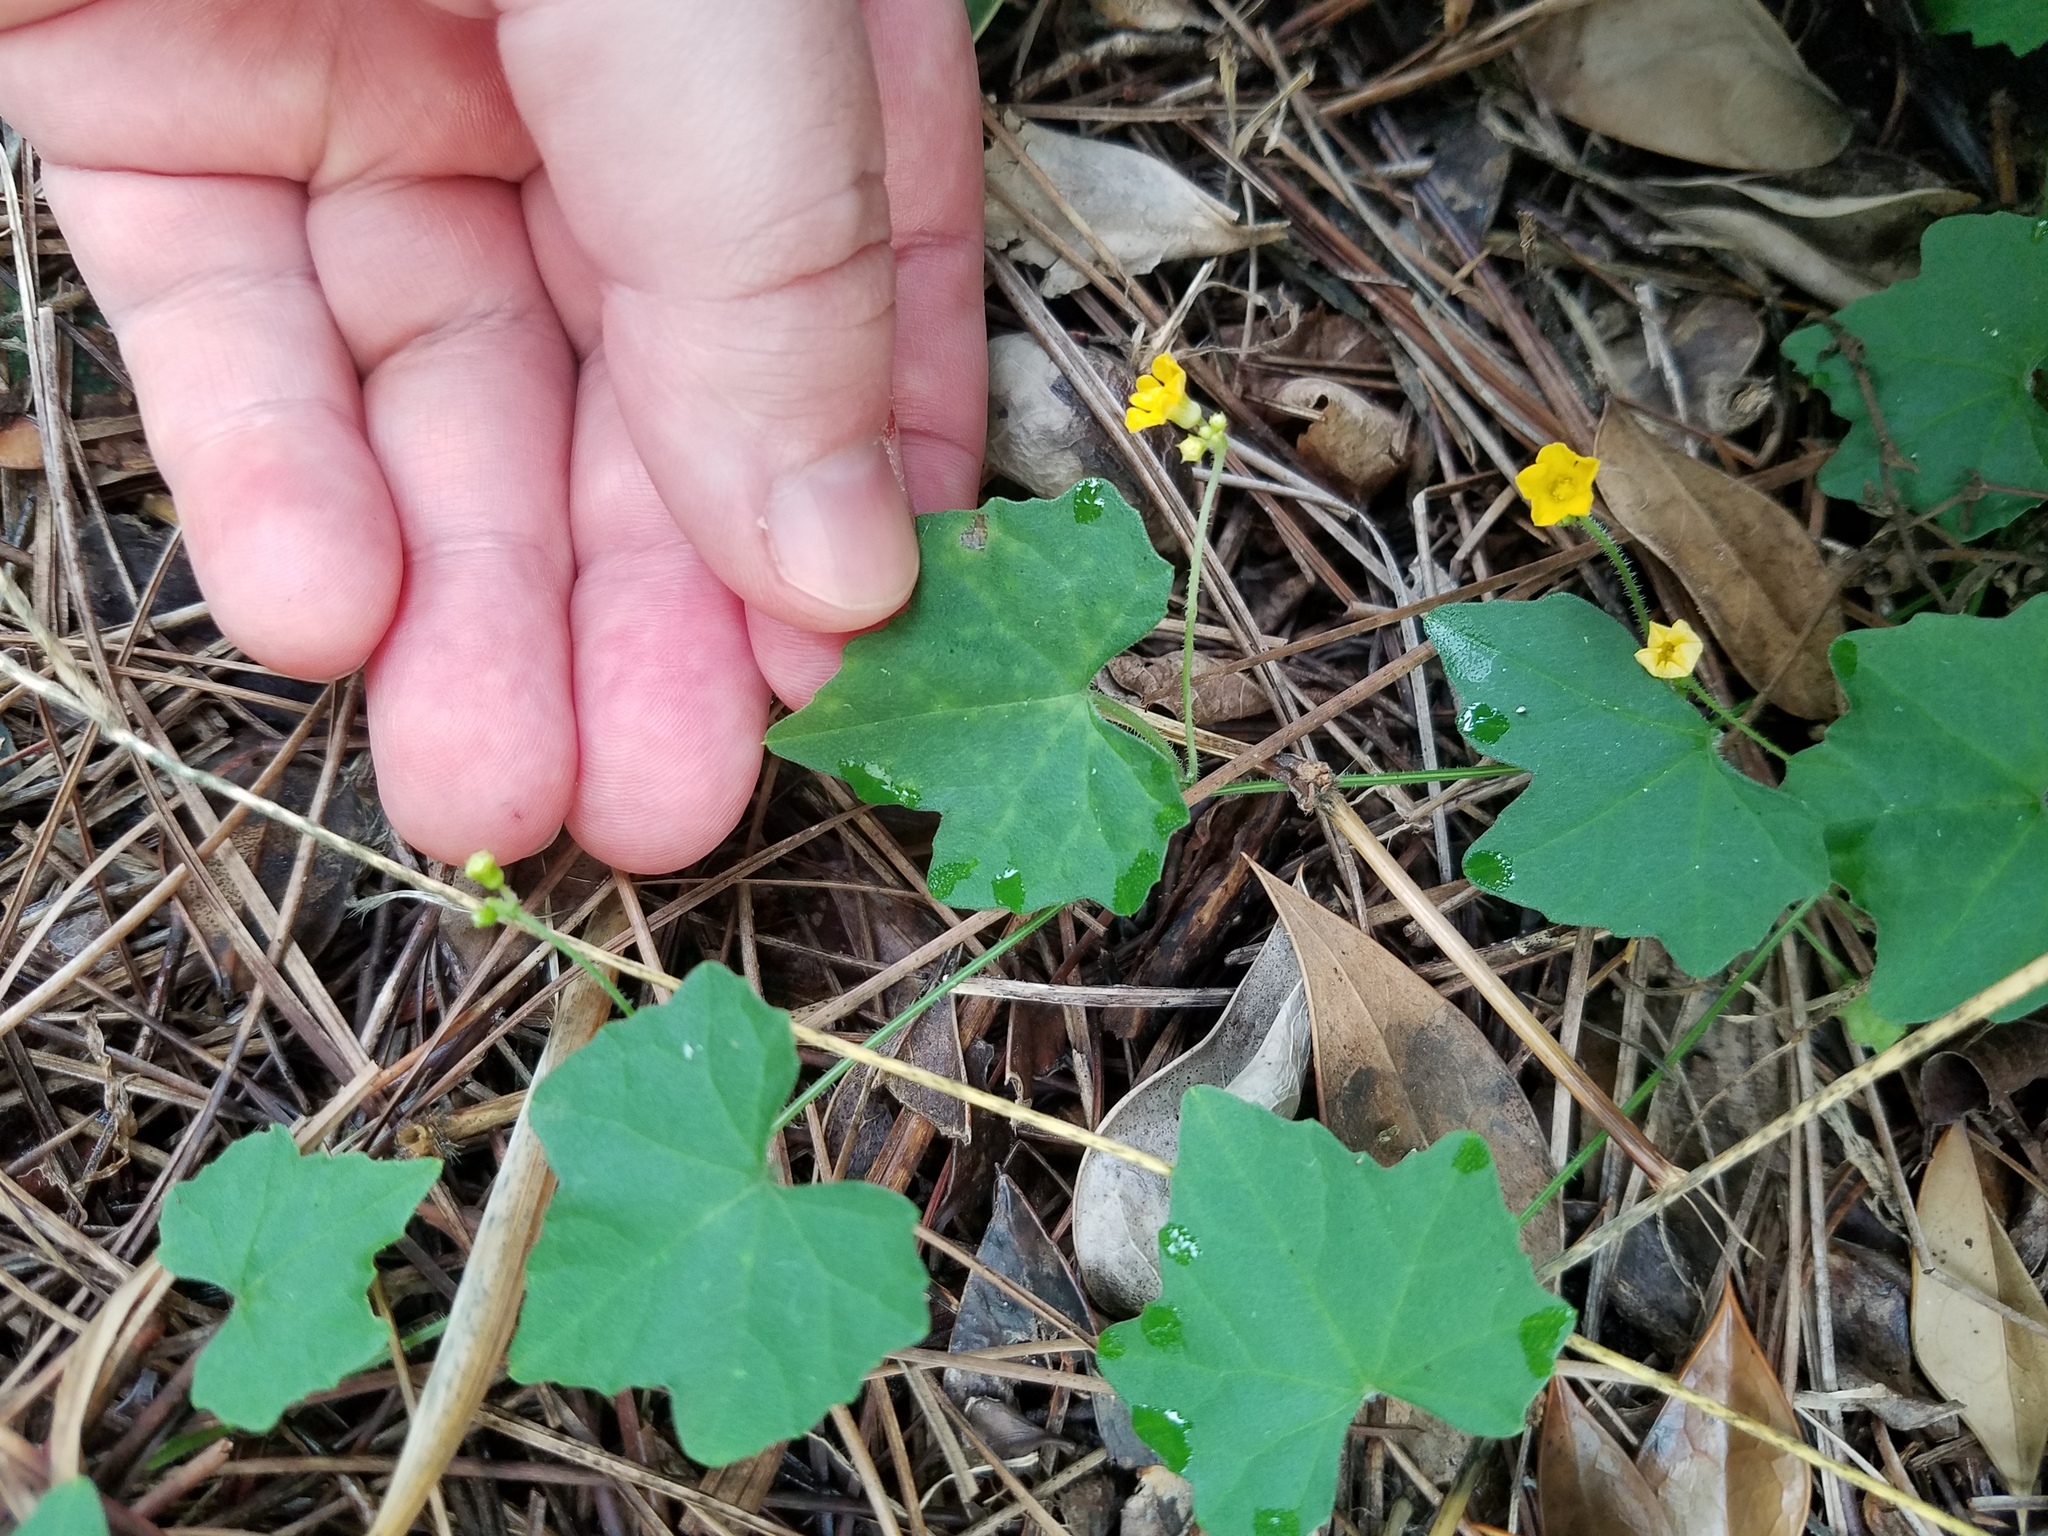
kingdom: Plantae
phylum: Tracheophyta
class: Magnoliopsida
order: Cucurbitales
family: Cucurbitaceae
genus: Melothria
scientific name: Melothria pendula
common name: Creeping-cucumber
